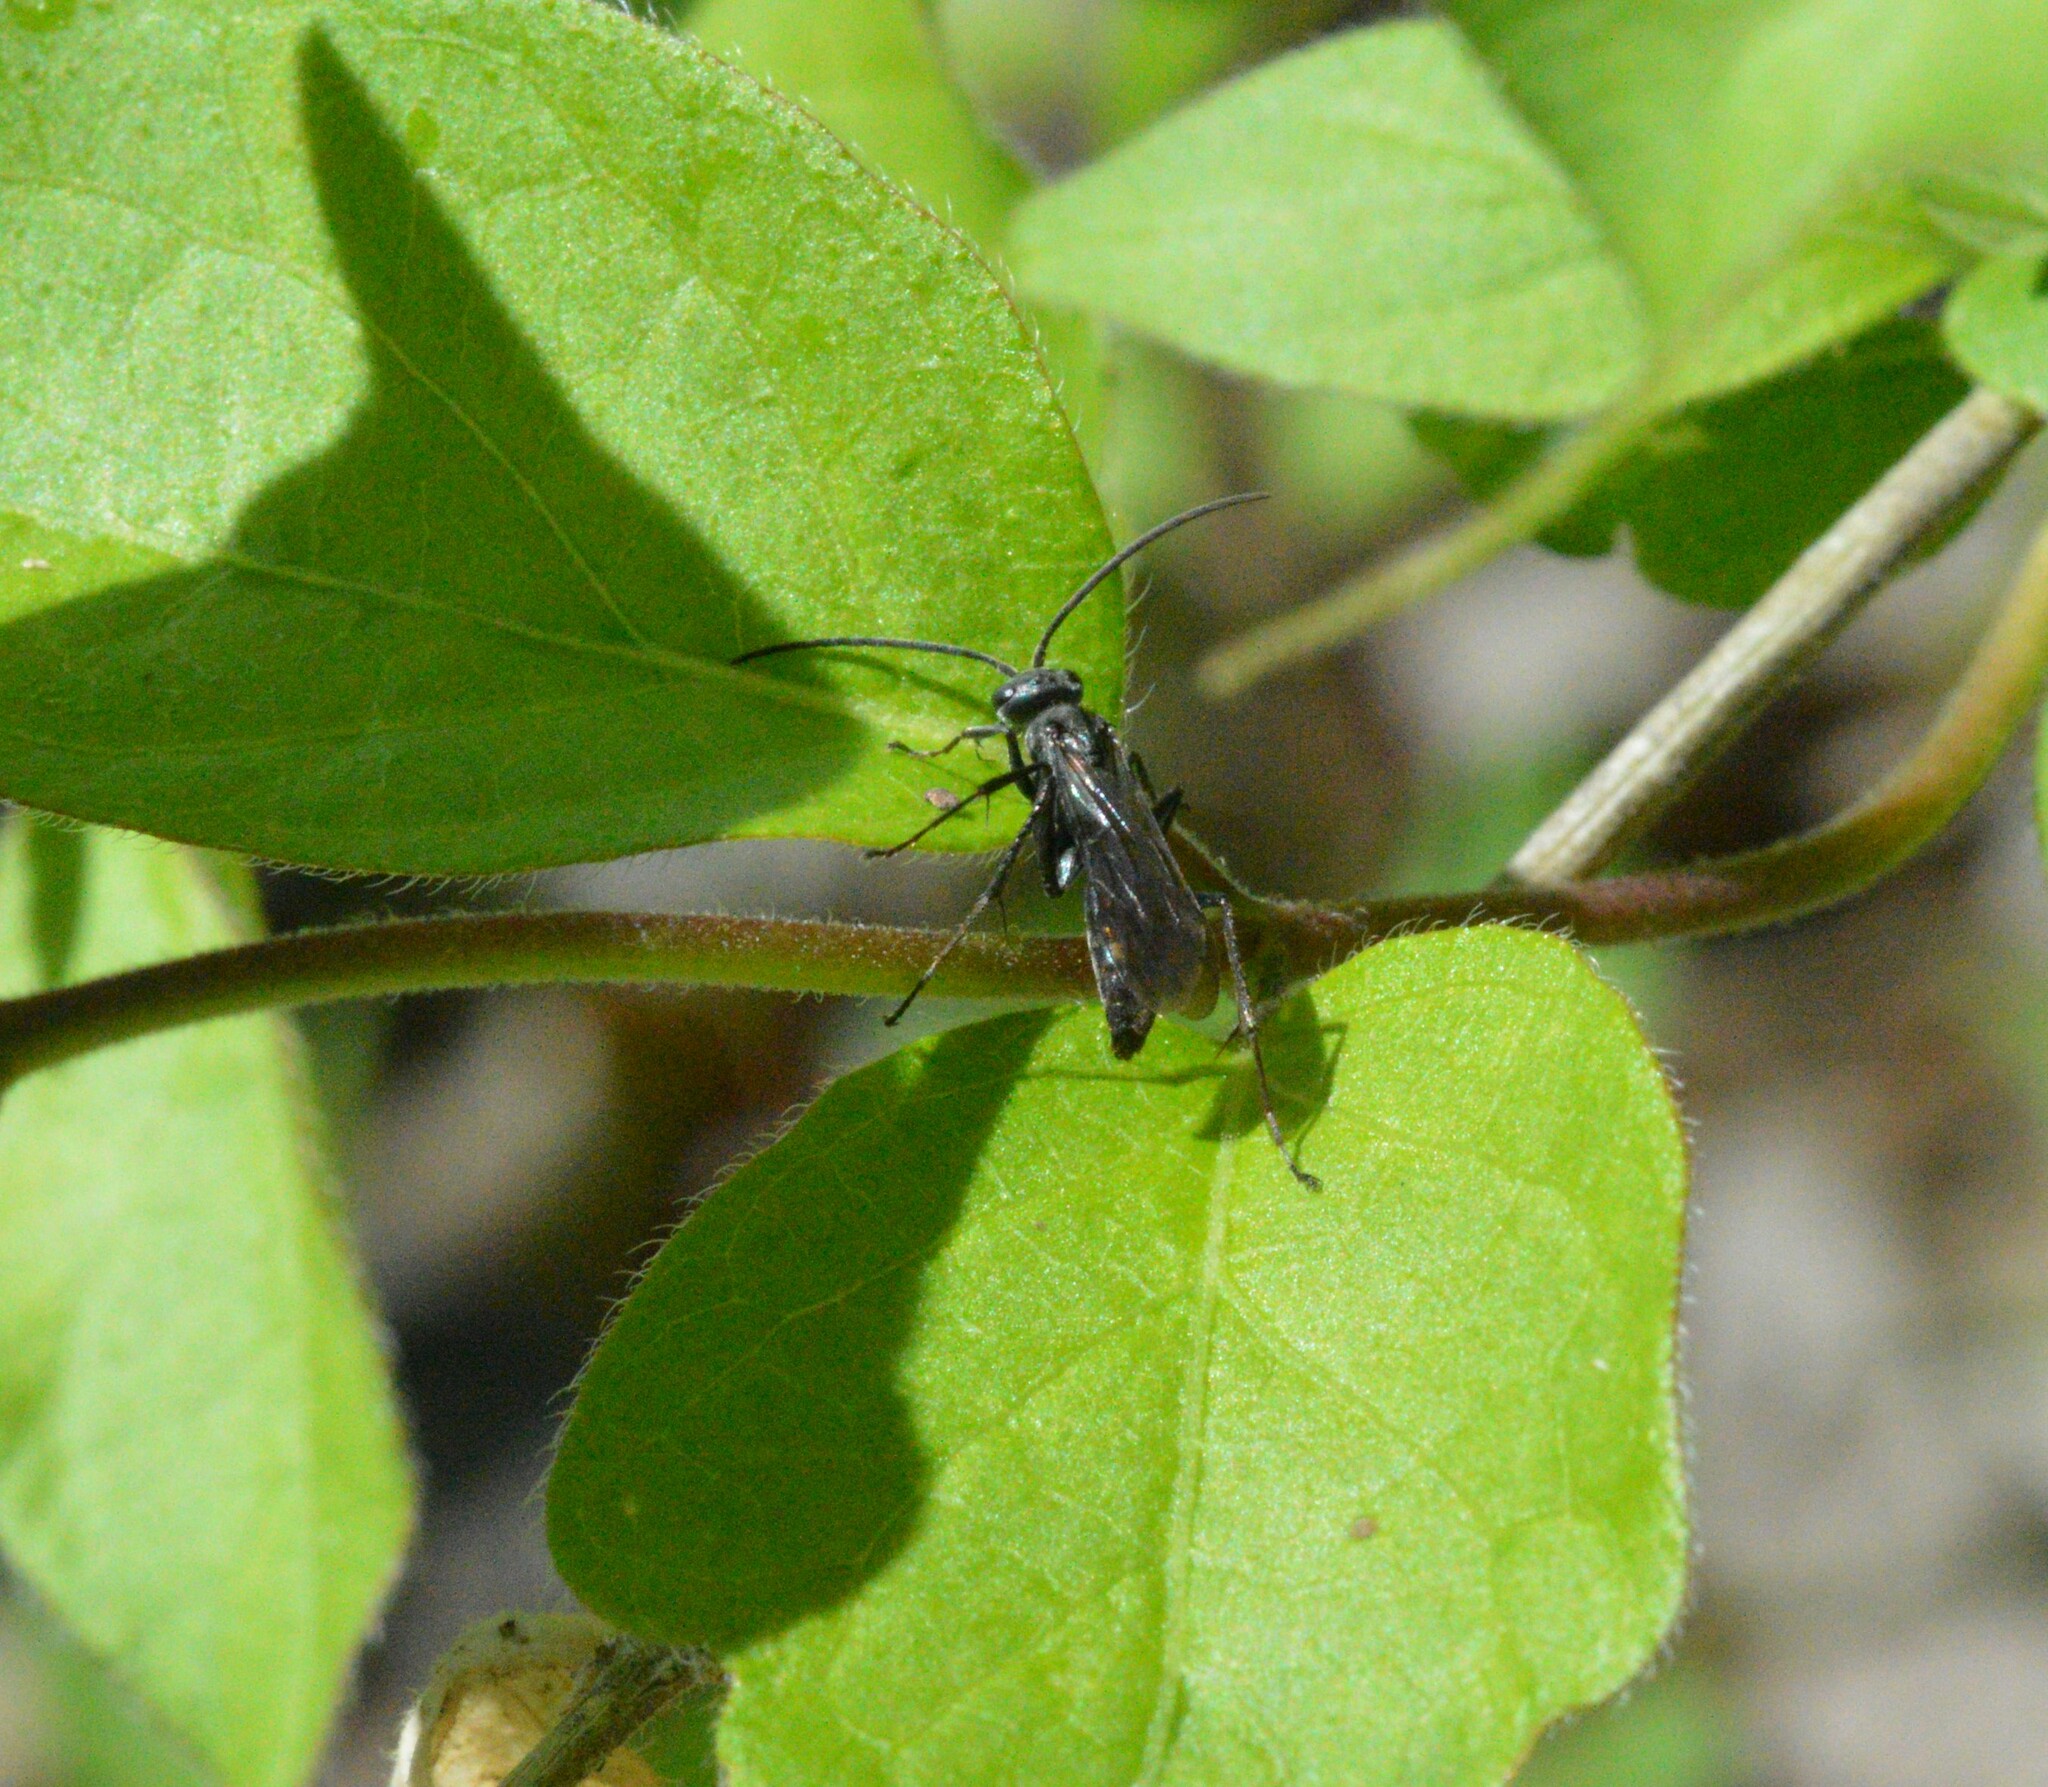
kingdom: Animalia
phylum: Arthropoda
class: Insecta
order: Hymenoptera
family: Pompilidae
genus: Priocnemis
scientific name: Priocnemis minorata
